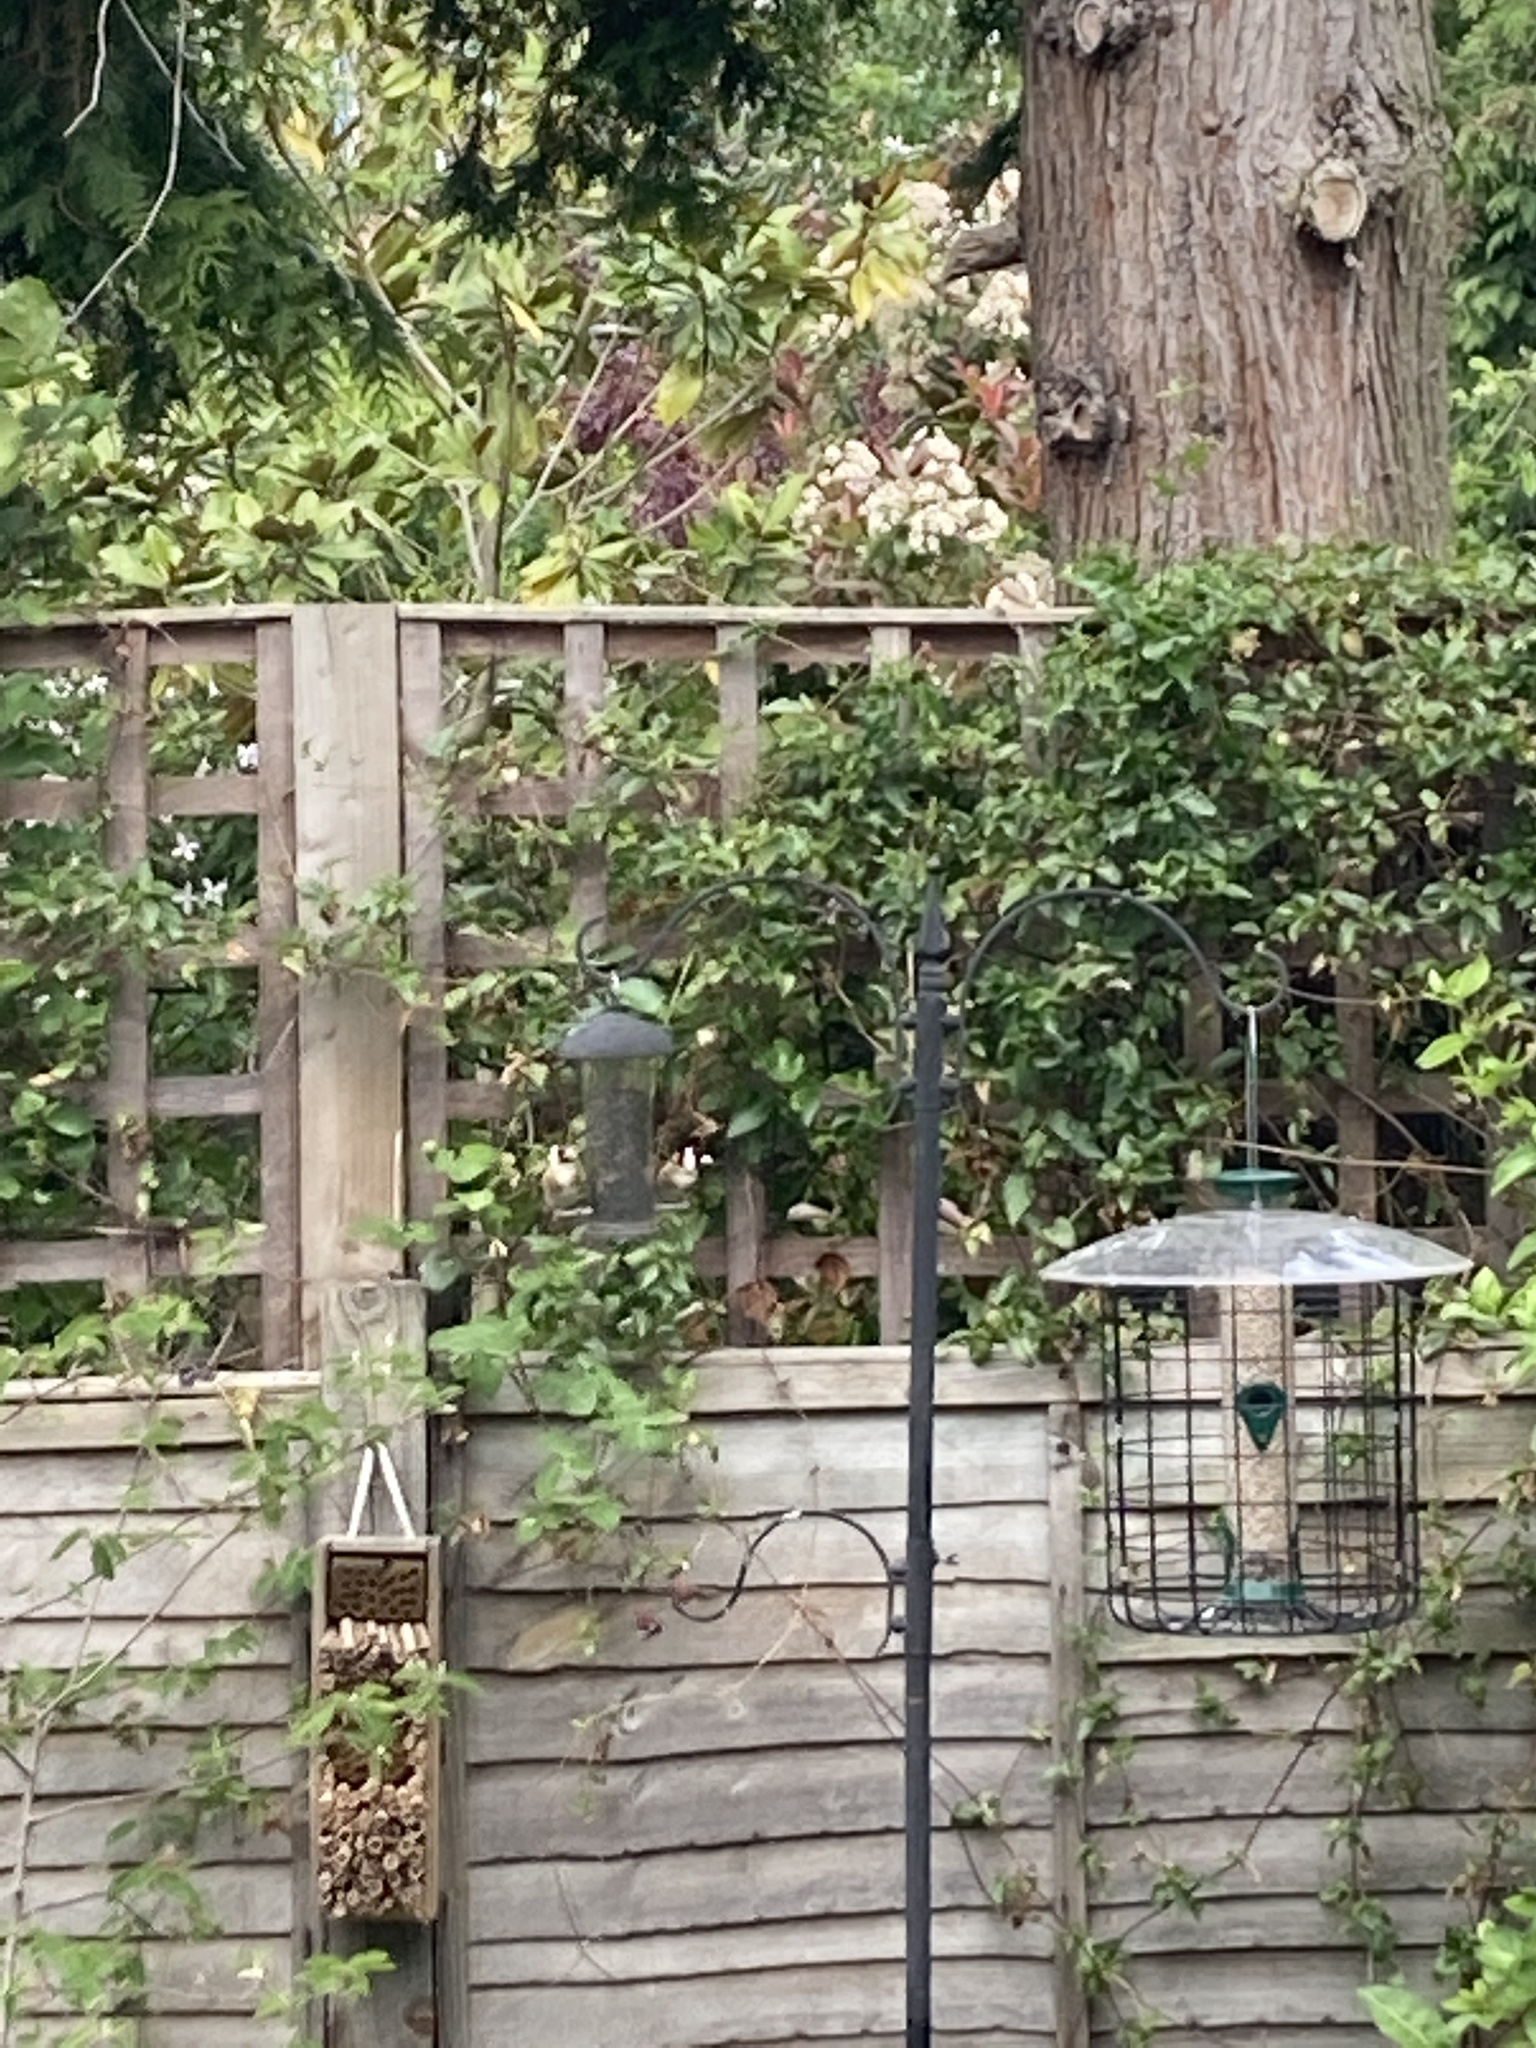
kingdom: Animalia
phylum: Chordata
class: Aves
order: Passeriformes
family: Fringillidae
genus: Carduelis
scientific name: Carduelis carduelis
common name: European goldfinch
